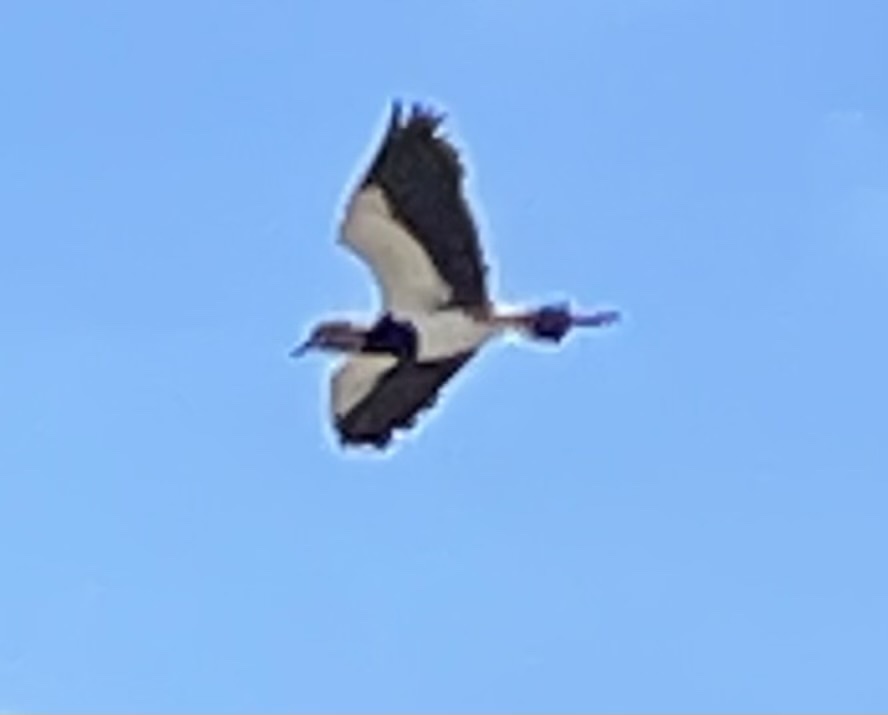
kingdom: Animalia
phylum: Chordata
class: Aves
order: Charadriiformes
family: Charadriidae
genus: Vanellus
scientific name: Vanellus chilensis
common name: Southern lapwing
